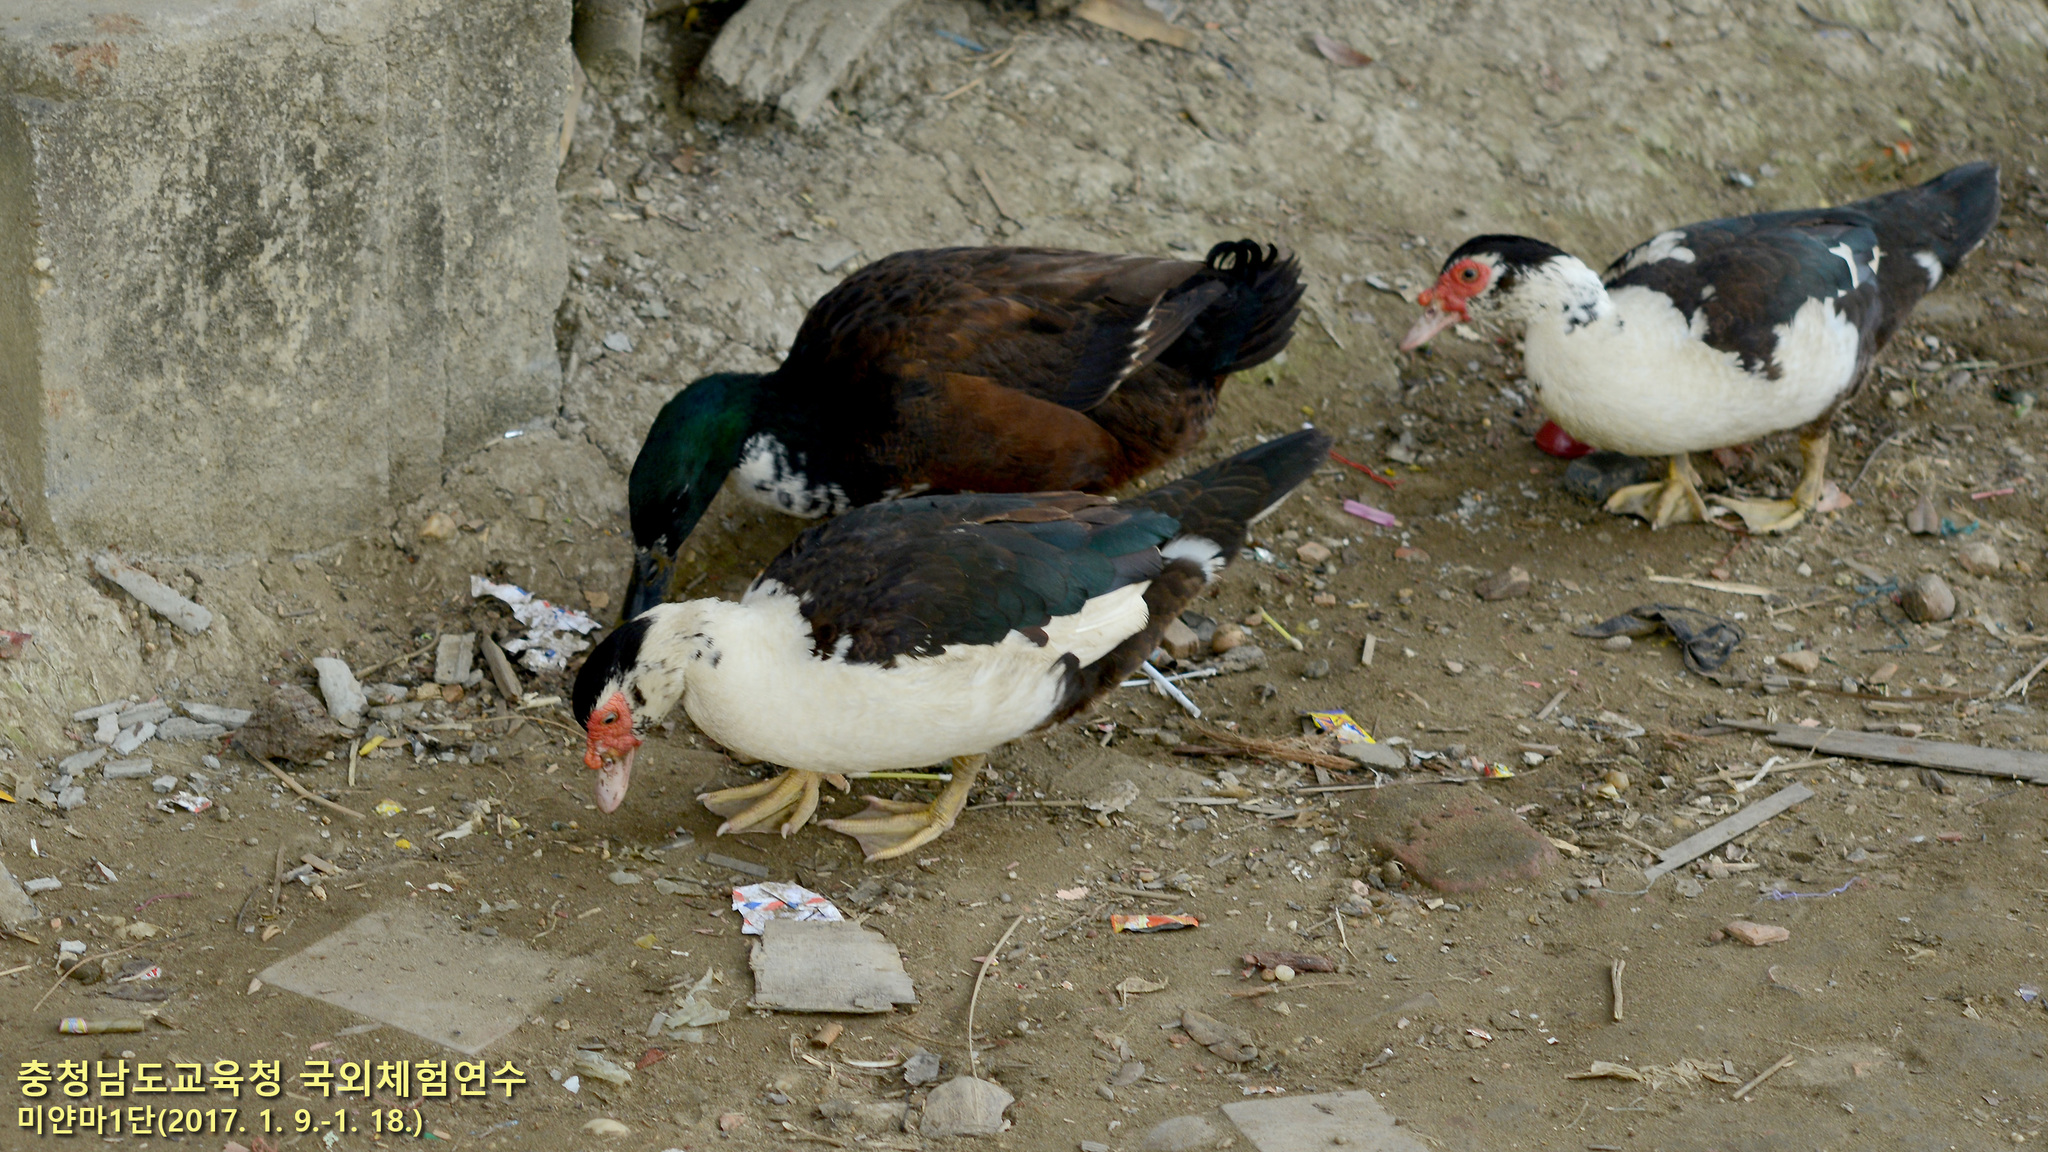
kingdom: Animalia
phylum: Chordata
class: Aves
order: Anseriformes
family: Anatidae
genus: Cairina
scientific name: Cairina moschata
